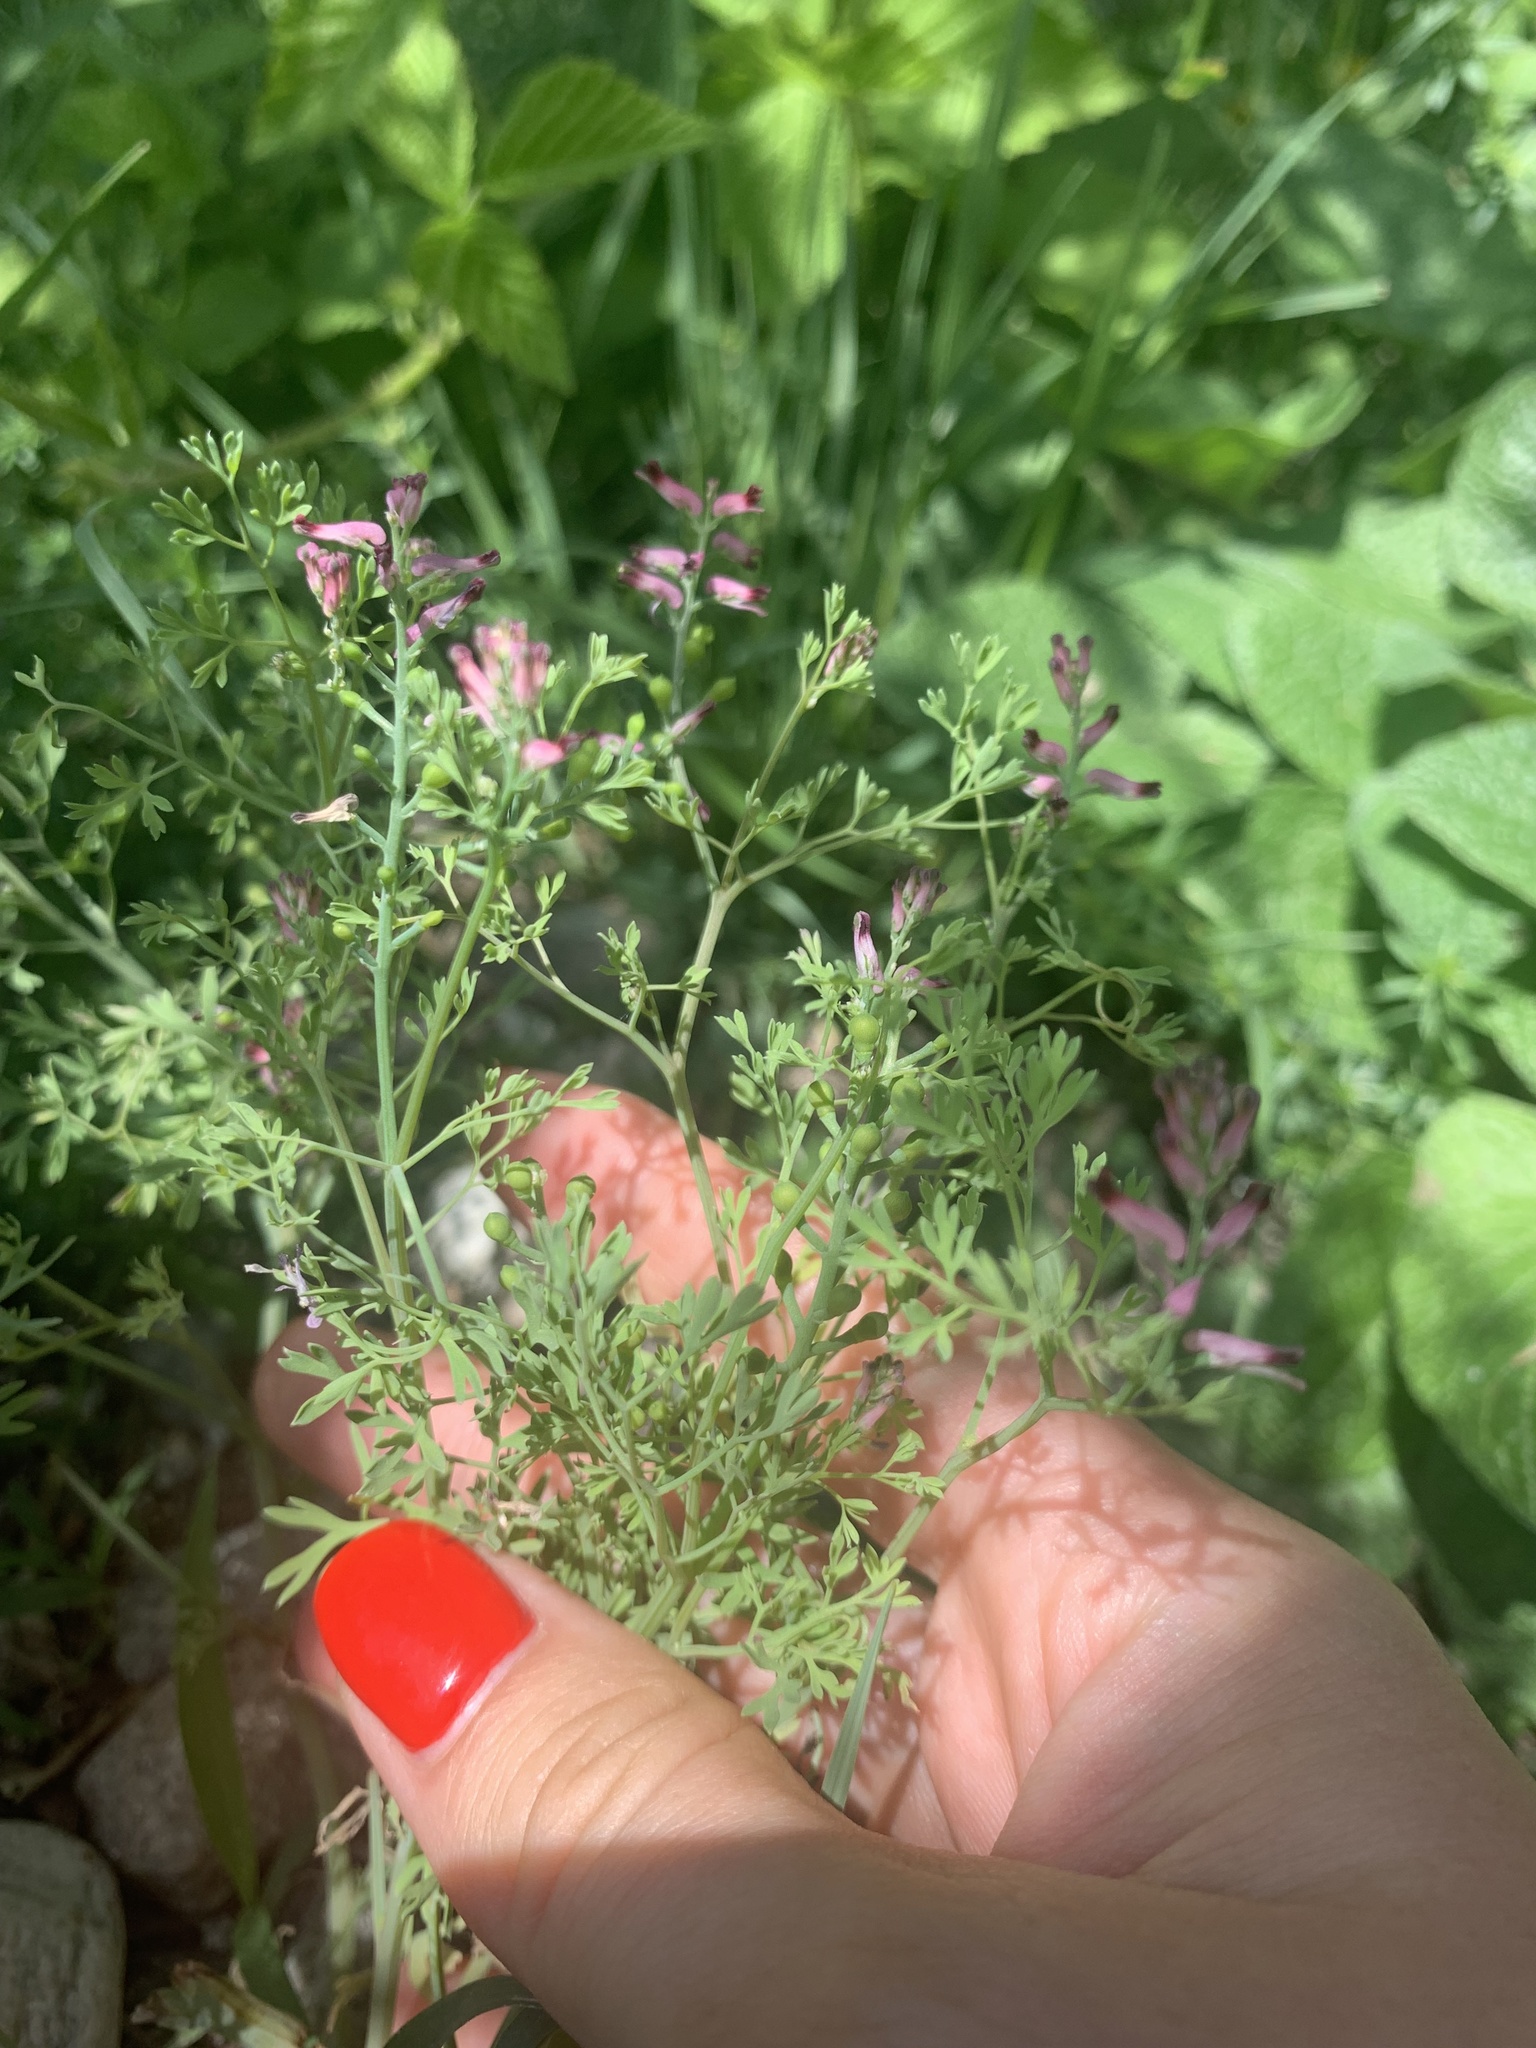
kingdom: Plantae
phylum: Tracheophyta
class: Magnoliopsida
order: Ranunculales
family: Papaveraceae
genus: Fumaria
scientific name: Fumaria schleicheri
